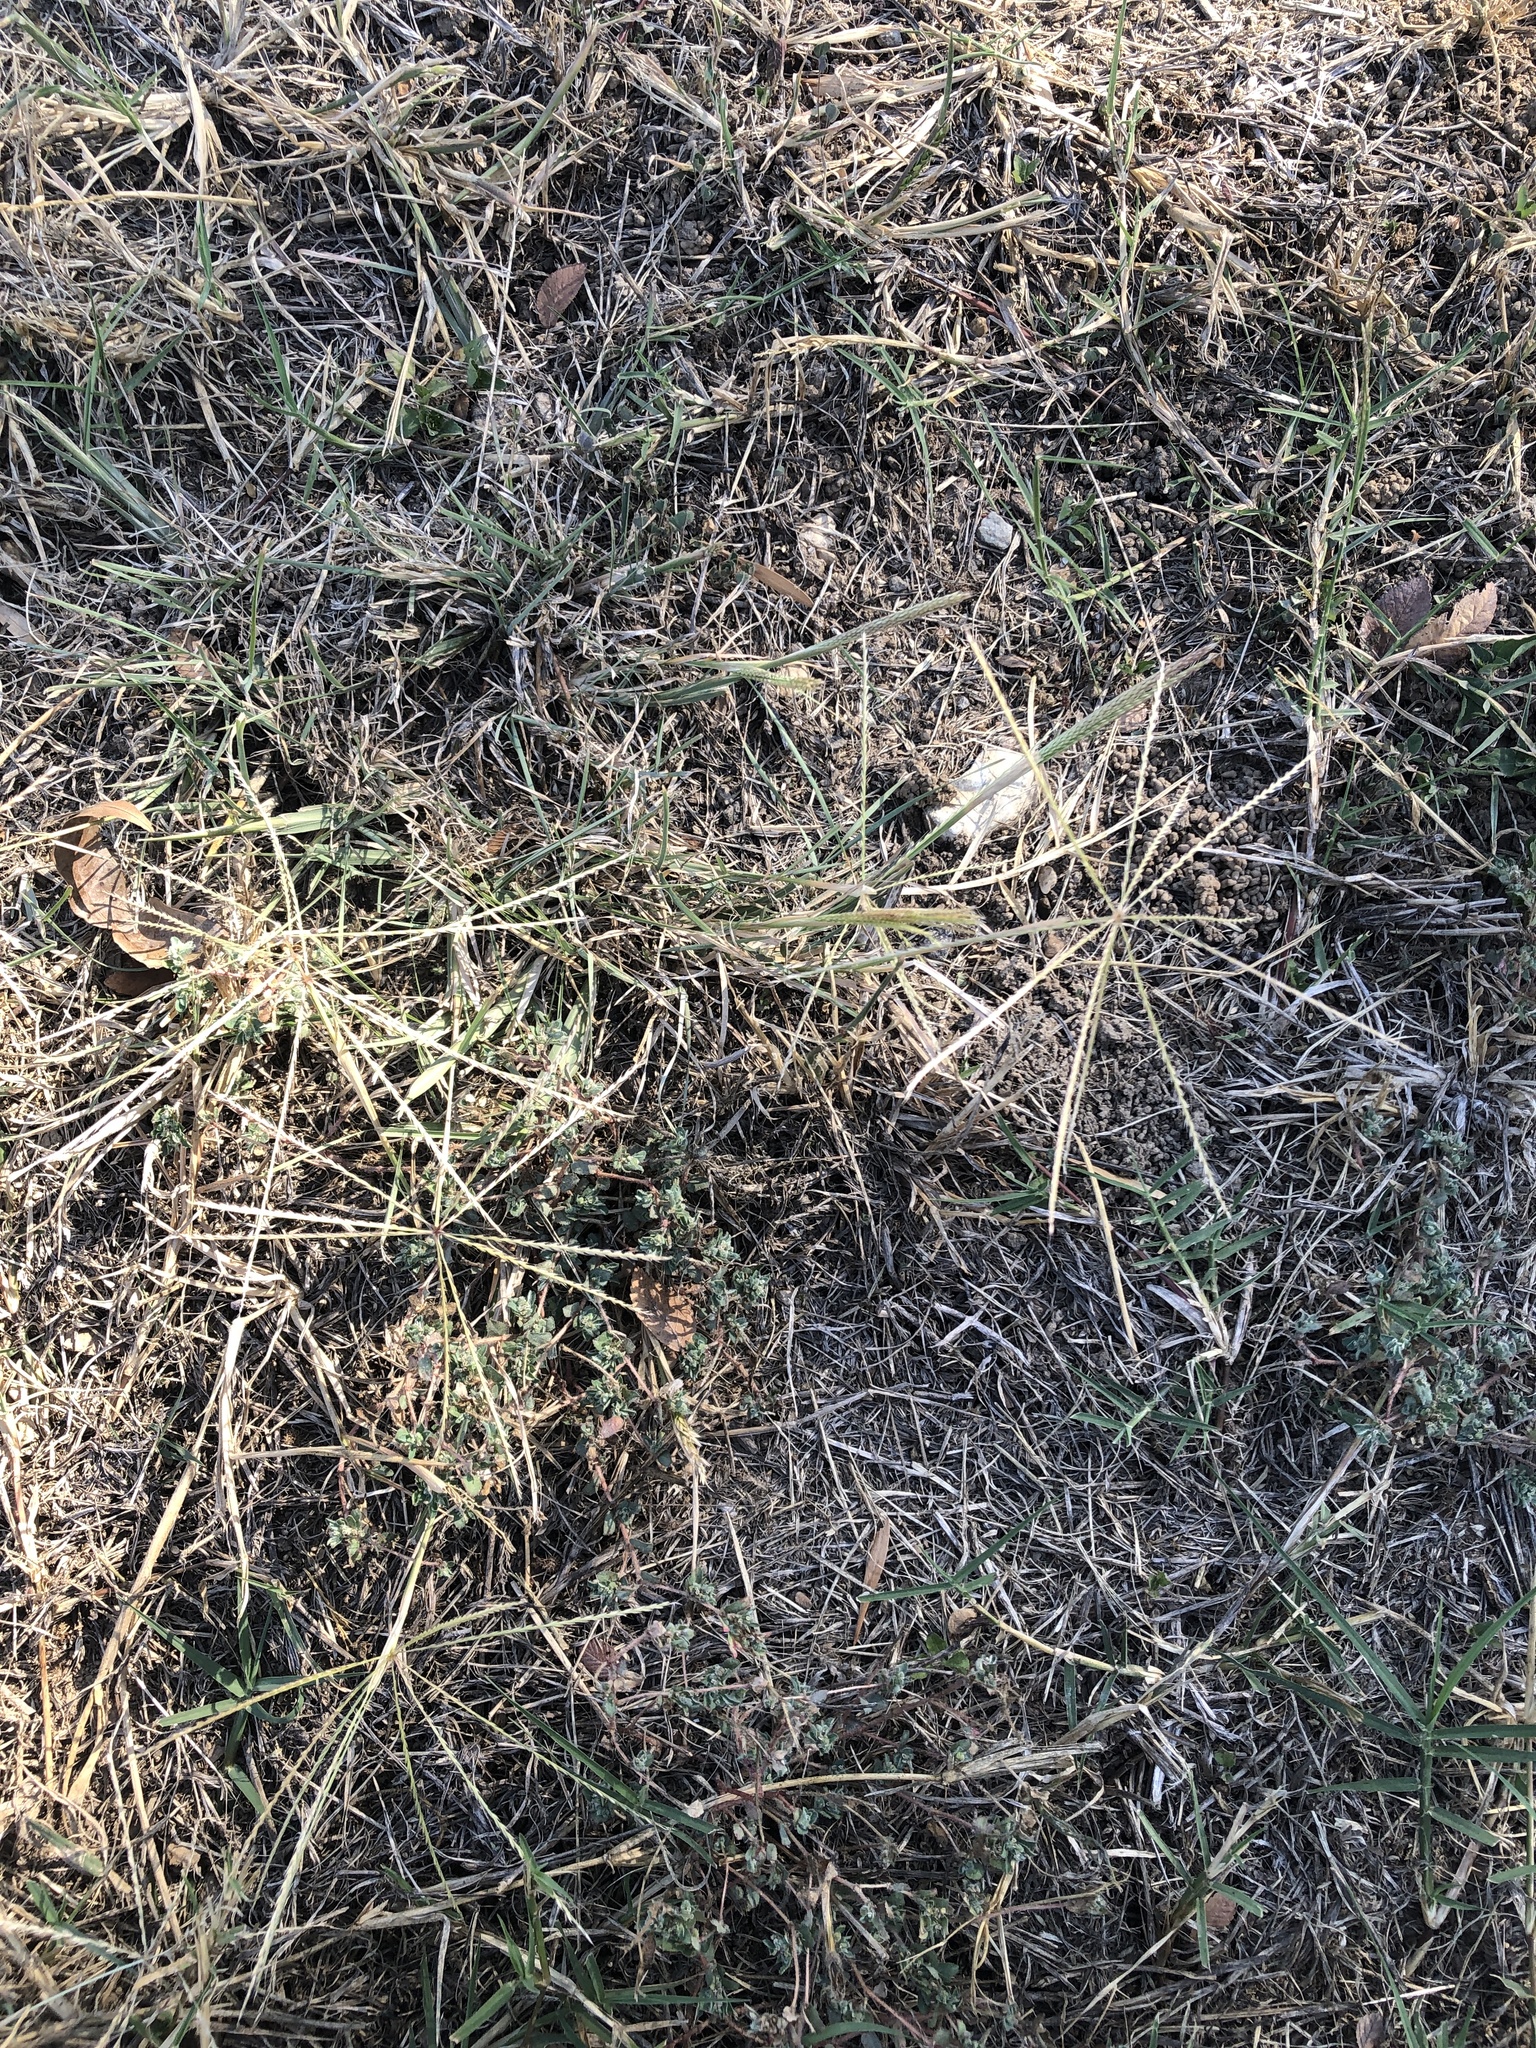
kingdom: Plantae
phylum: Tracheophyta
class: Liliopsida
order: Poales
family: Poaceae
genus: Chloris
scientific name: Chloris verticillata
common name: Tumble windmill grass
